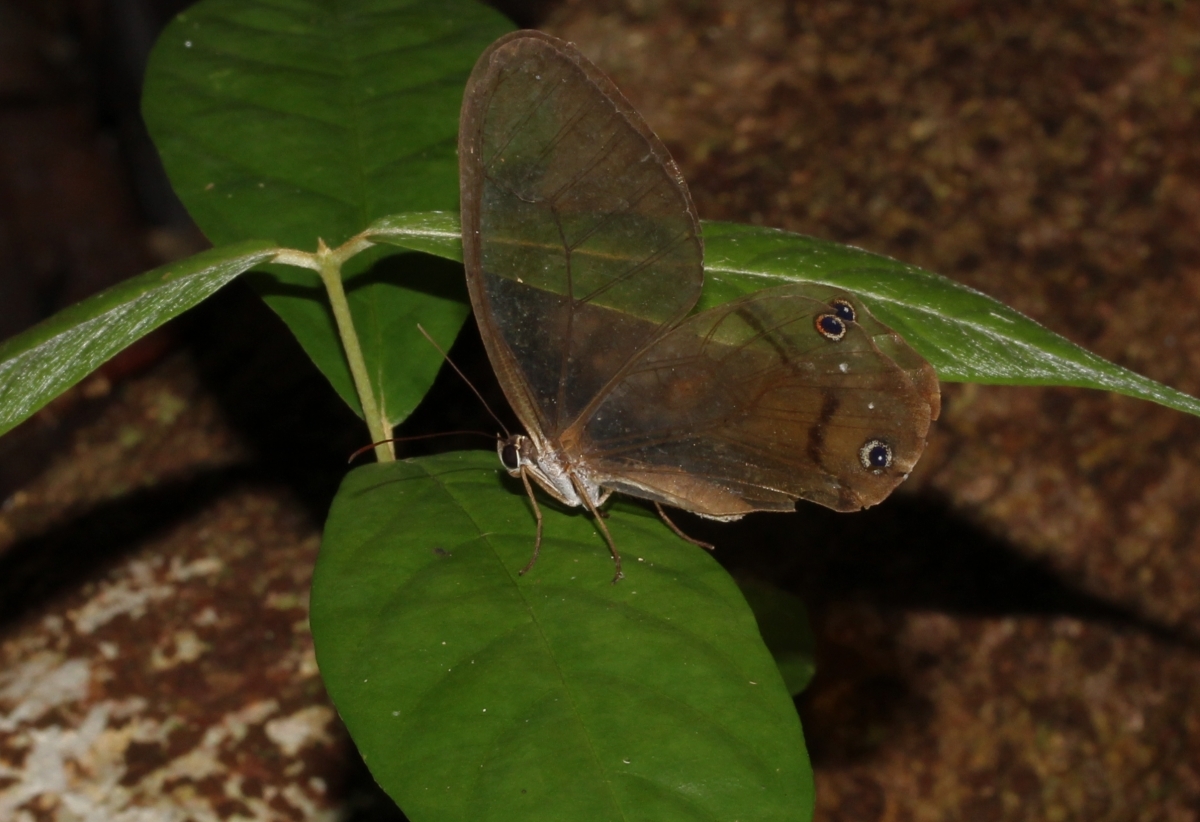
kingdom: Animalia
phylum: Arthropoda
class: Insecta
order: Lepidoptera
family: Nymphalidae
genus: Haetera
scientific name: Haetera piera
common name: Amber phantom
